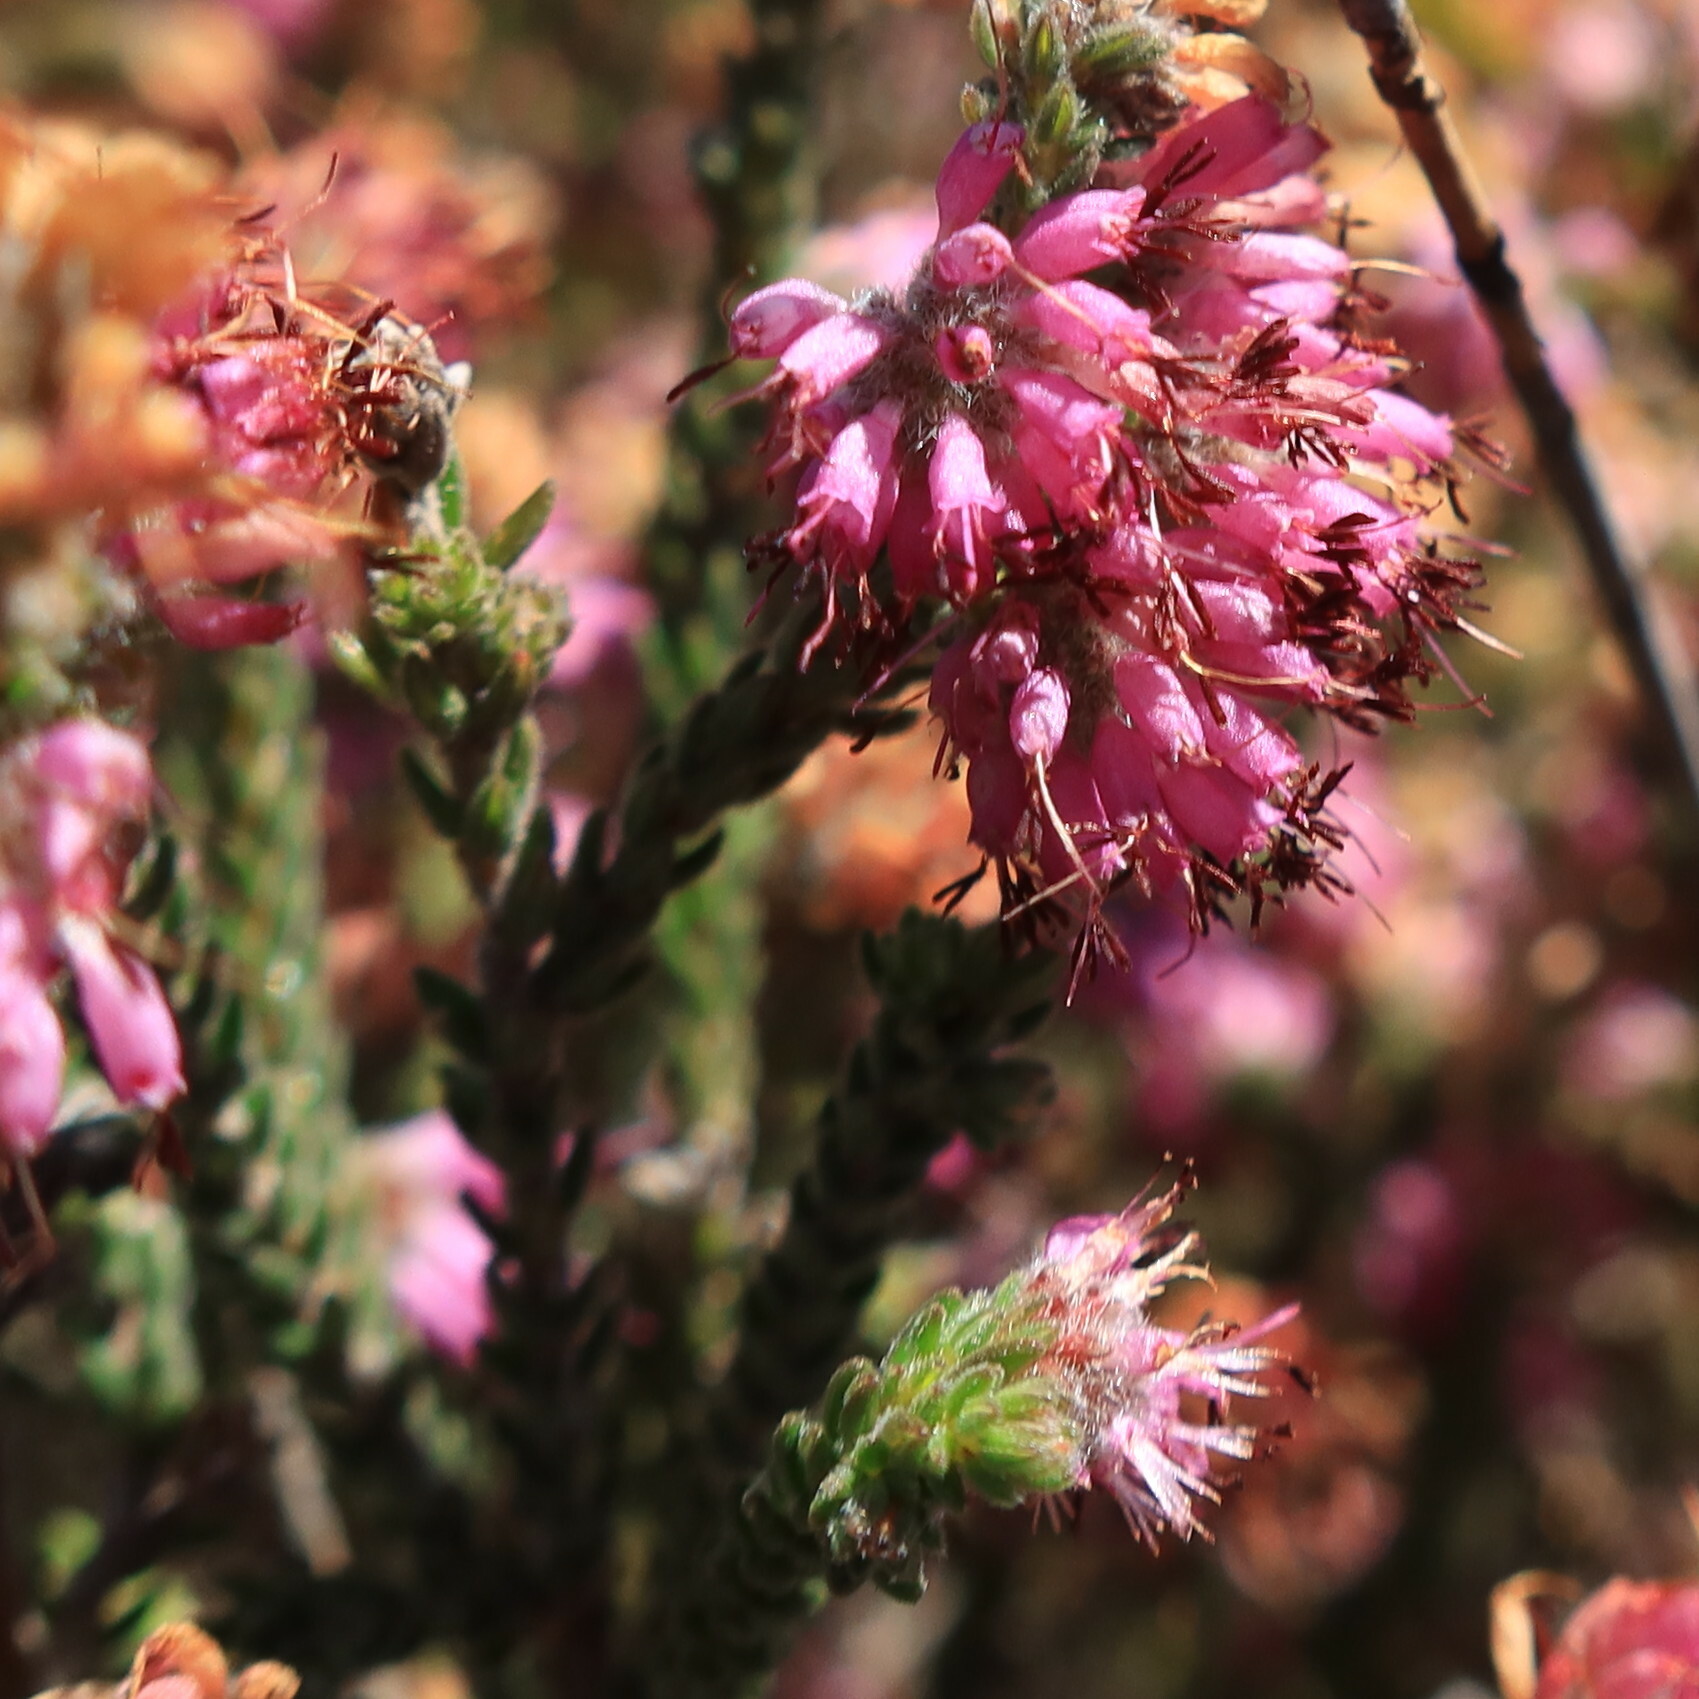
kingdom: Plantae
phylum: Tracheophyta
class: Magnoliopsida
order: Ericales
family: Ericaceae
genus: Erica
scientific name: Erica similis
